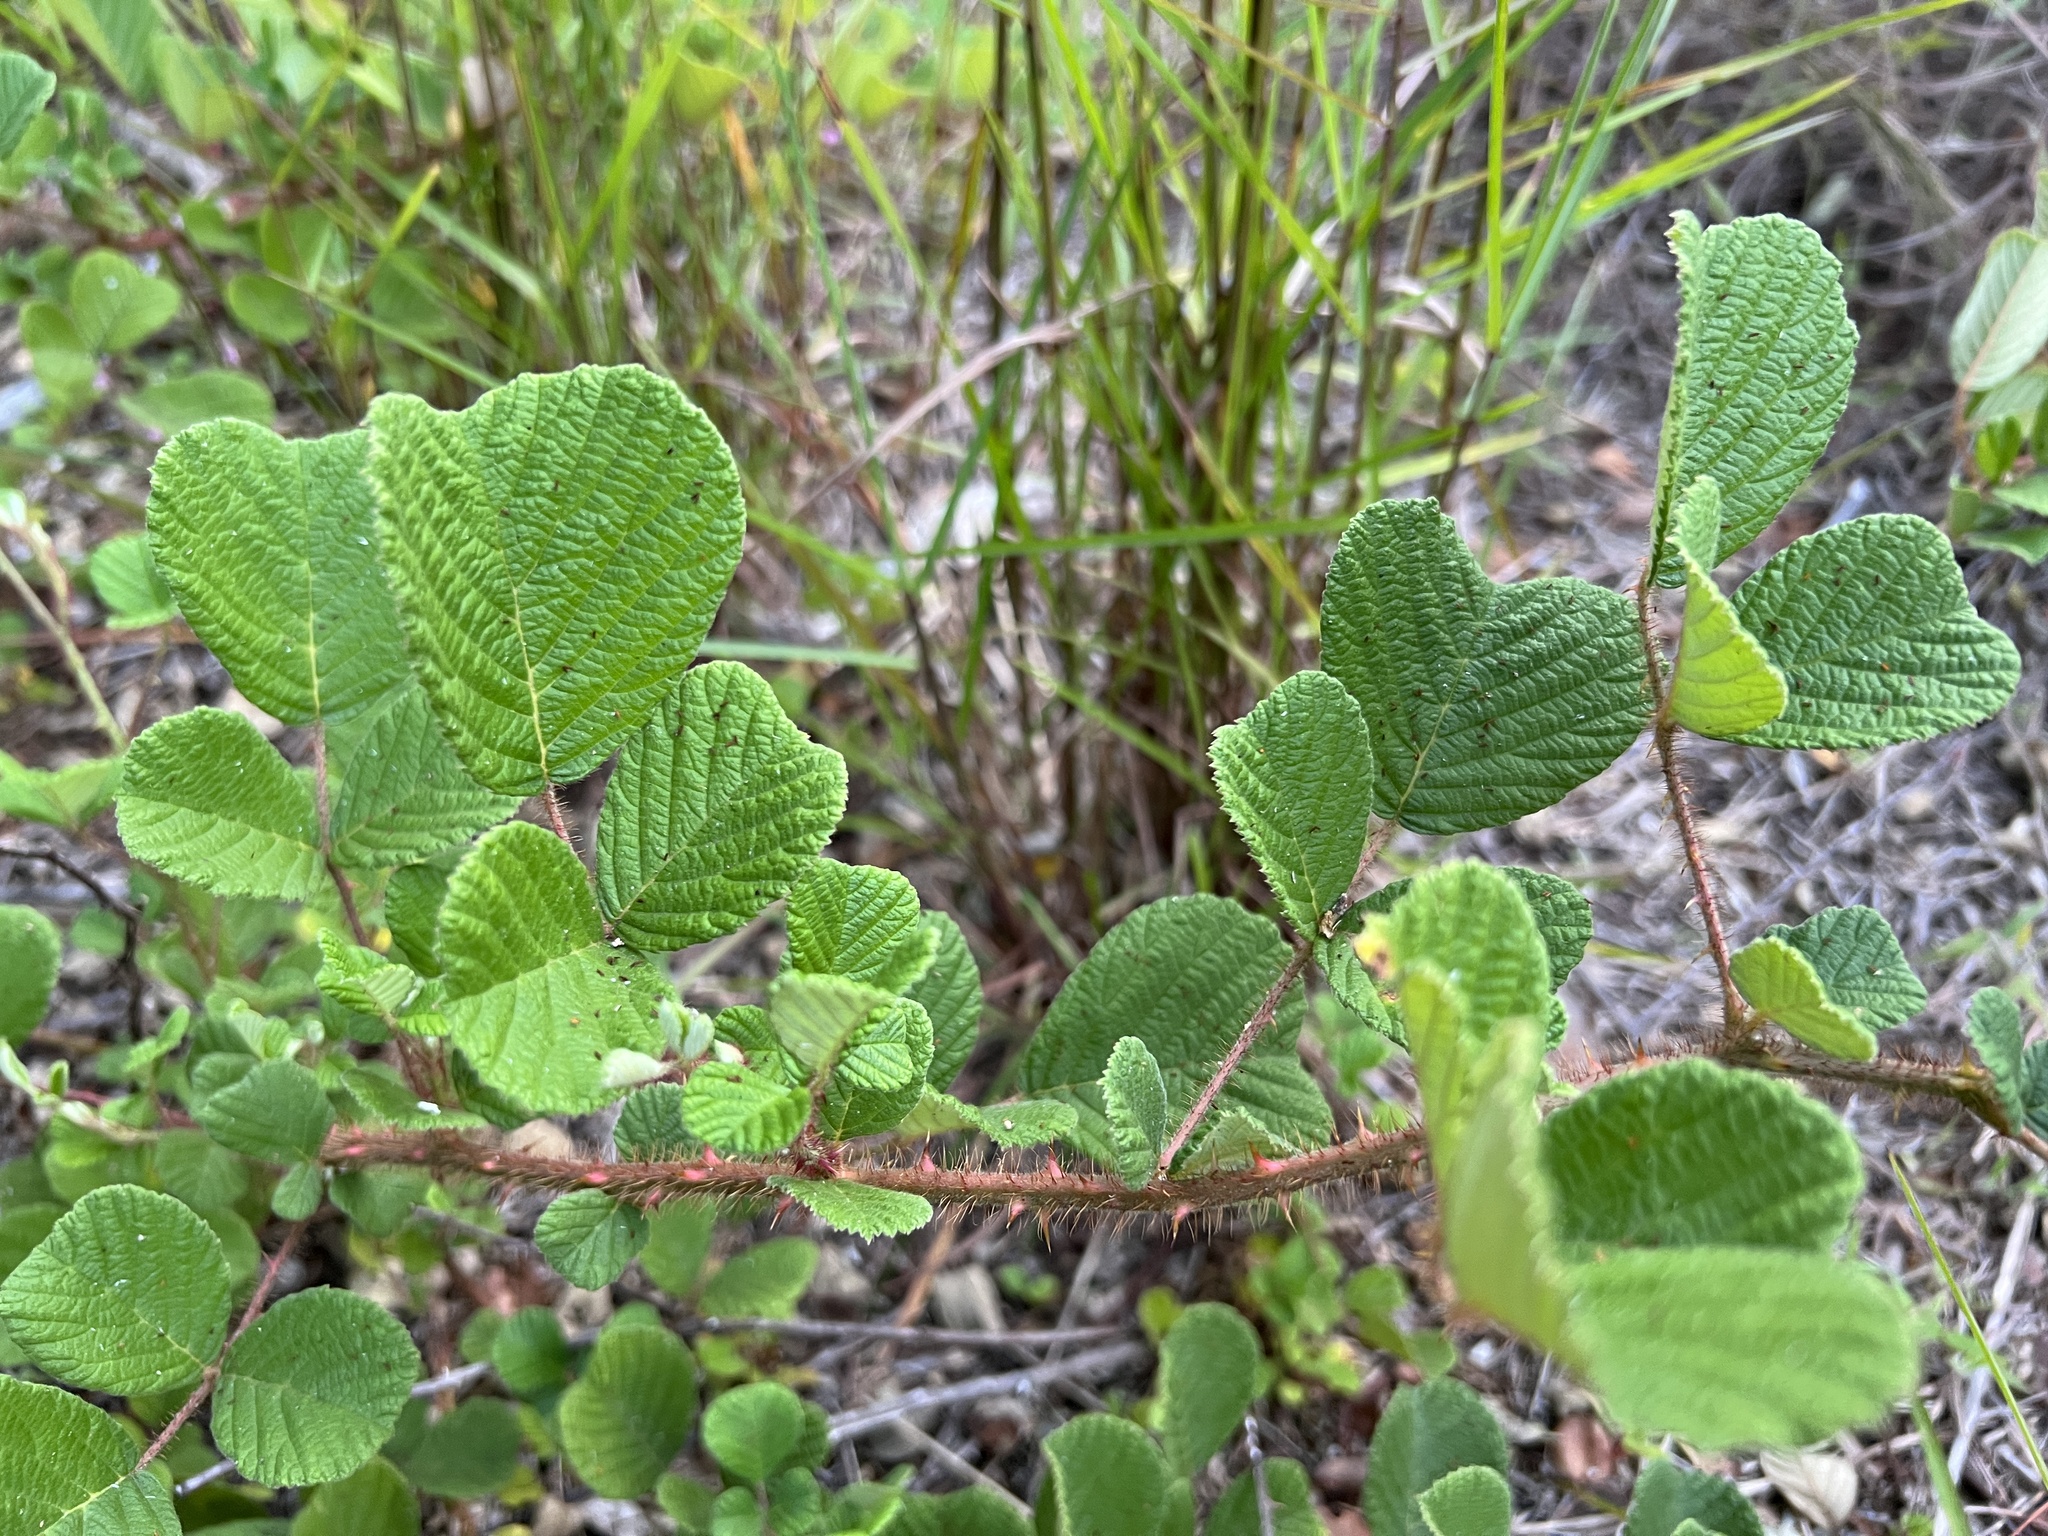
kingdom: Plantae
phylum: Tracheophyta
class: Magnoliopsida
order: Rosales
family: Rosaceae
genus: Rubus
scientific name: Rubus ellipticus
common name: Cheeseberry
